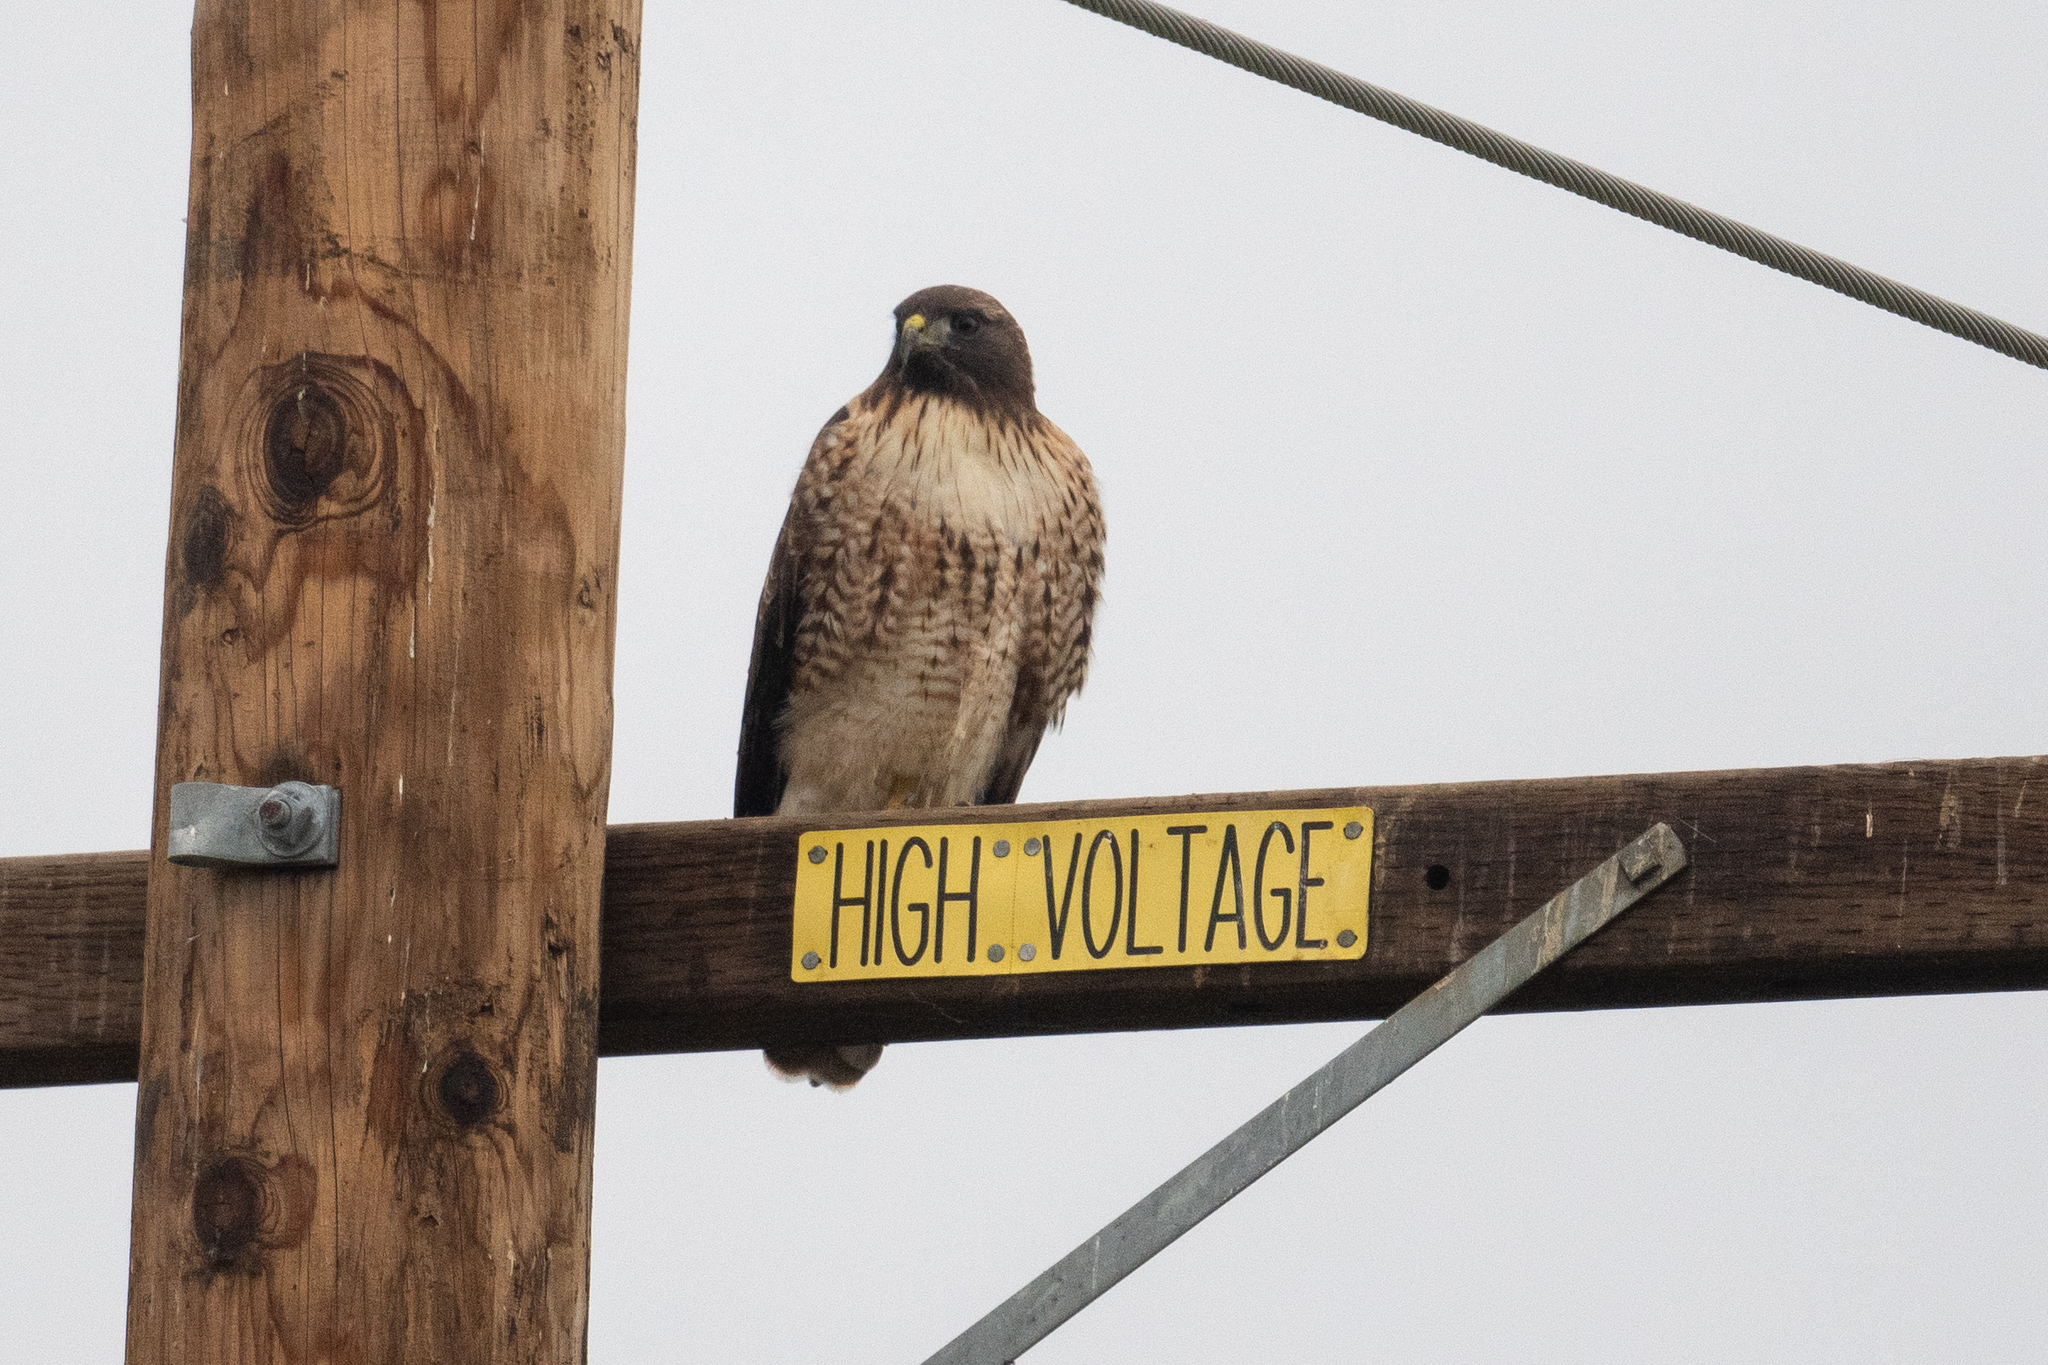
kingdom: Animalia
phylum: Chordata
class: Aves
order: Accipitriformes
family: Accipitridae
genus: Buteo
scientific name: Buteo jamaicensis
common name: Red-tailed hawk
